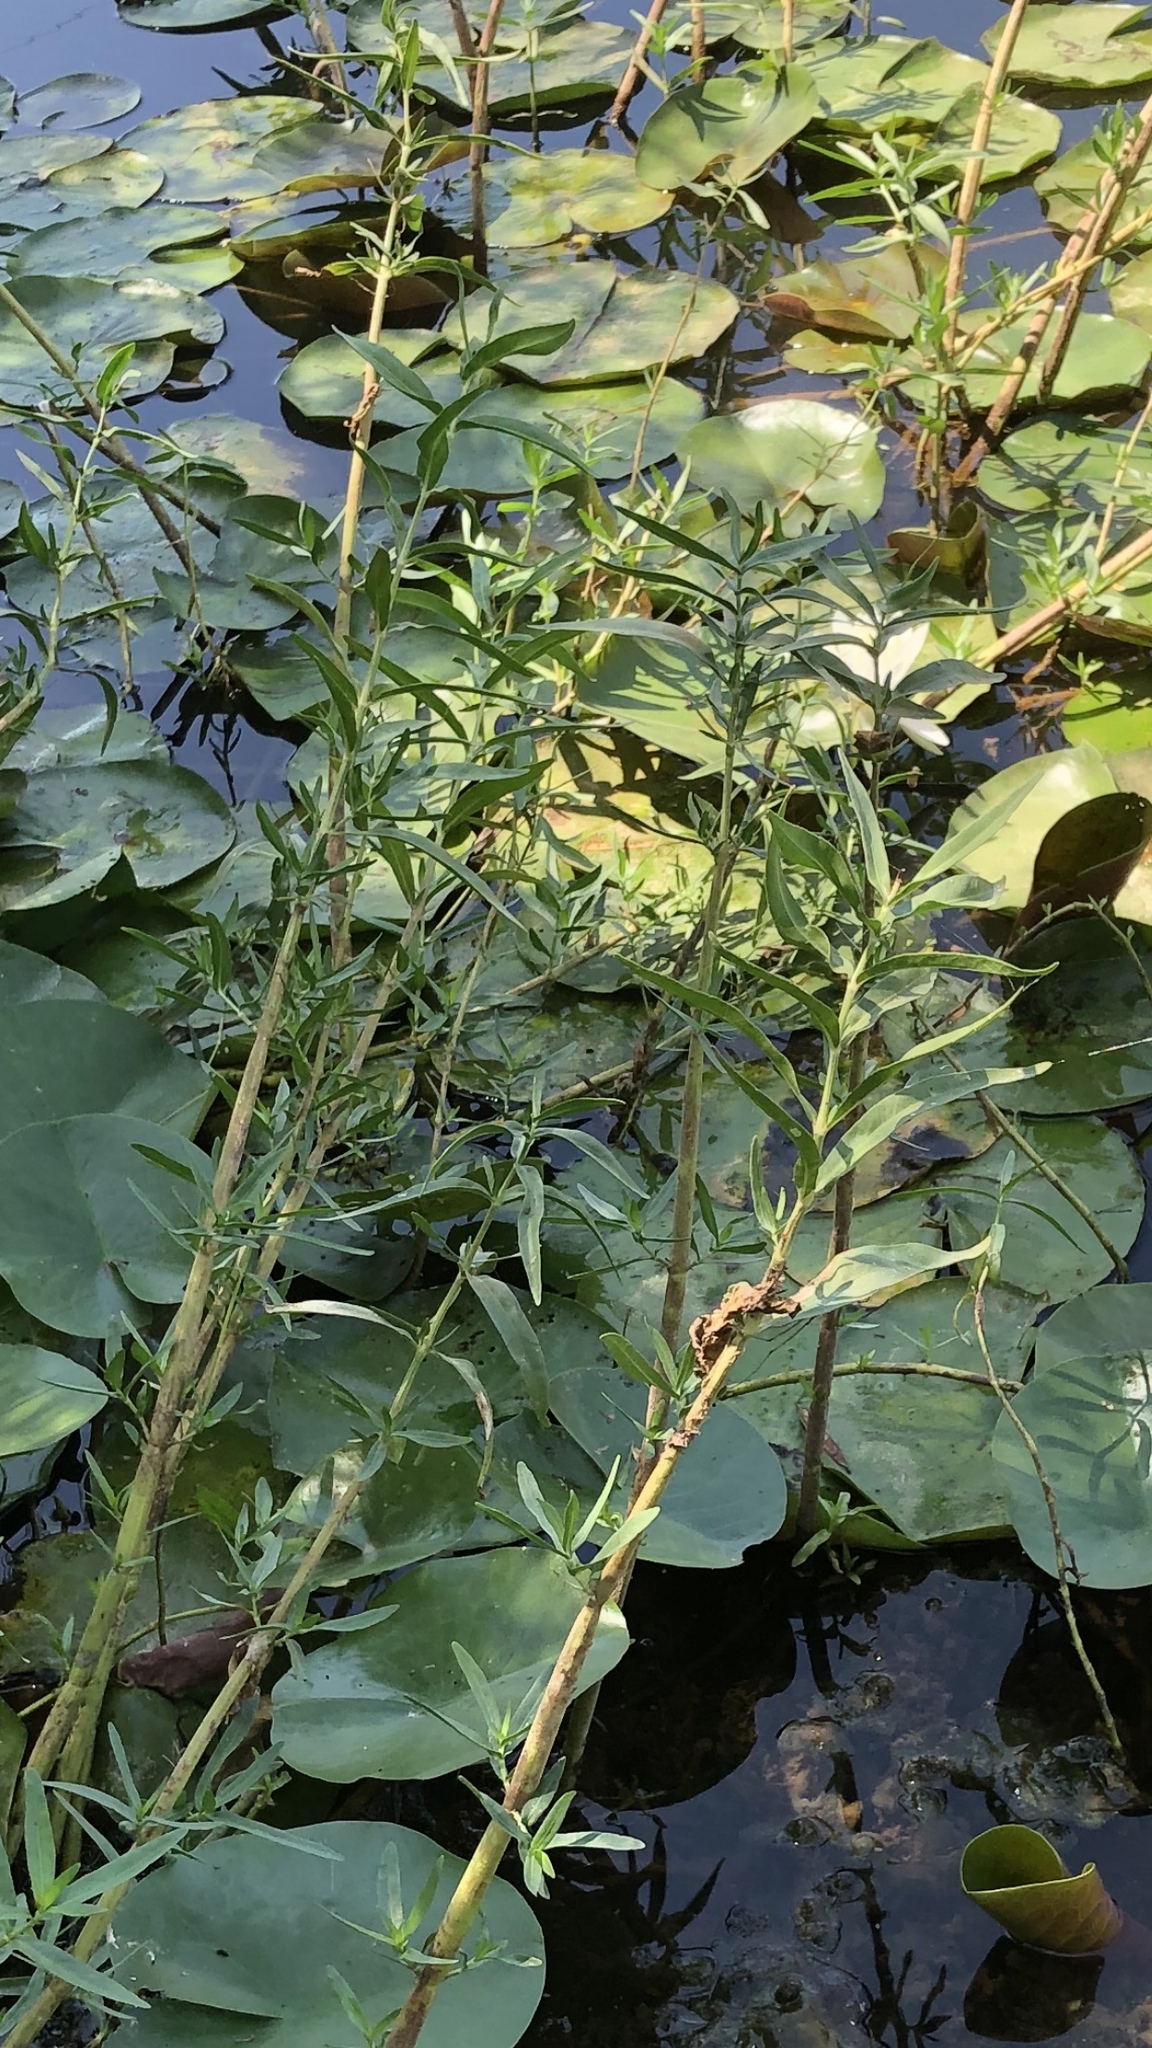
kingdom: Plantae
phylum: Tracheophyta
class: Magnoliopsida
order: Lamiales
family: Acanthaceae
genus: Dianthera
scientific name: Dianthera americana
